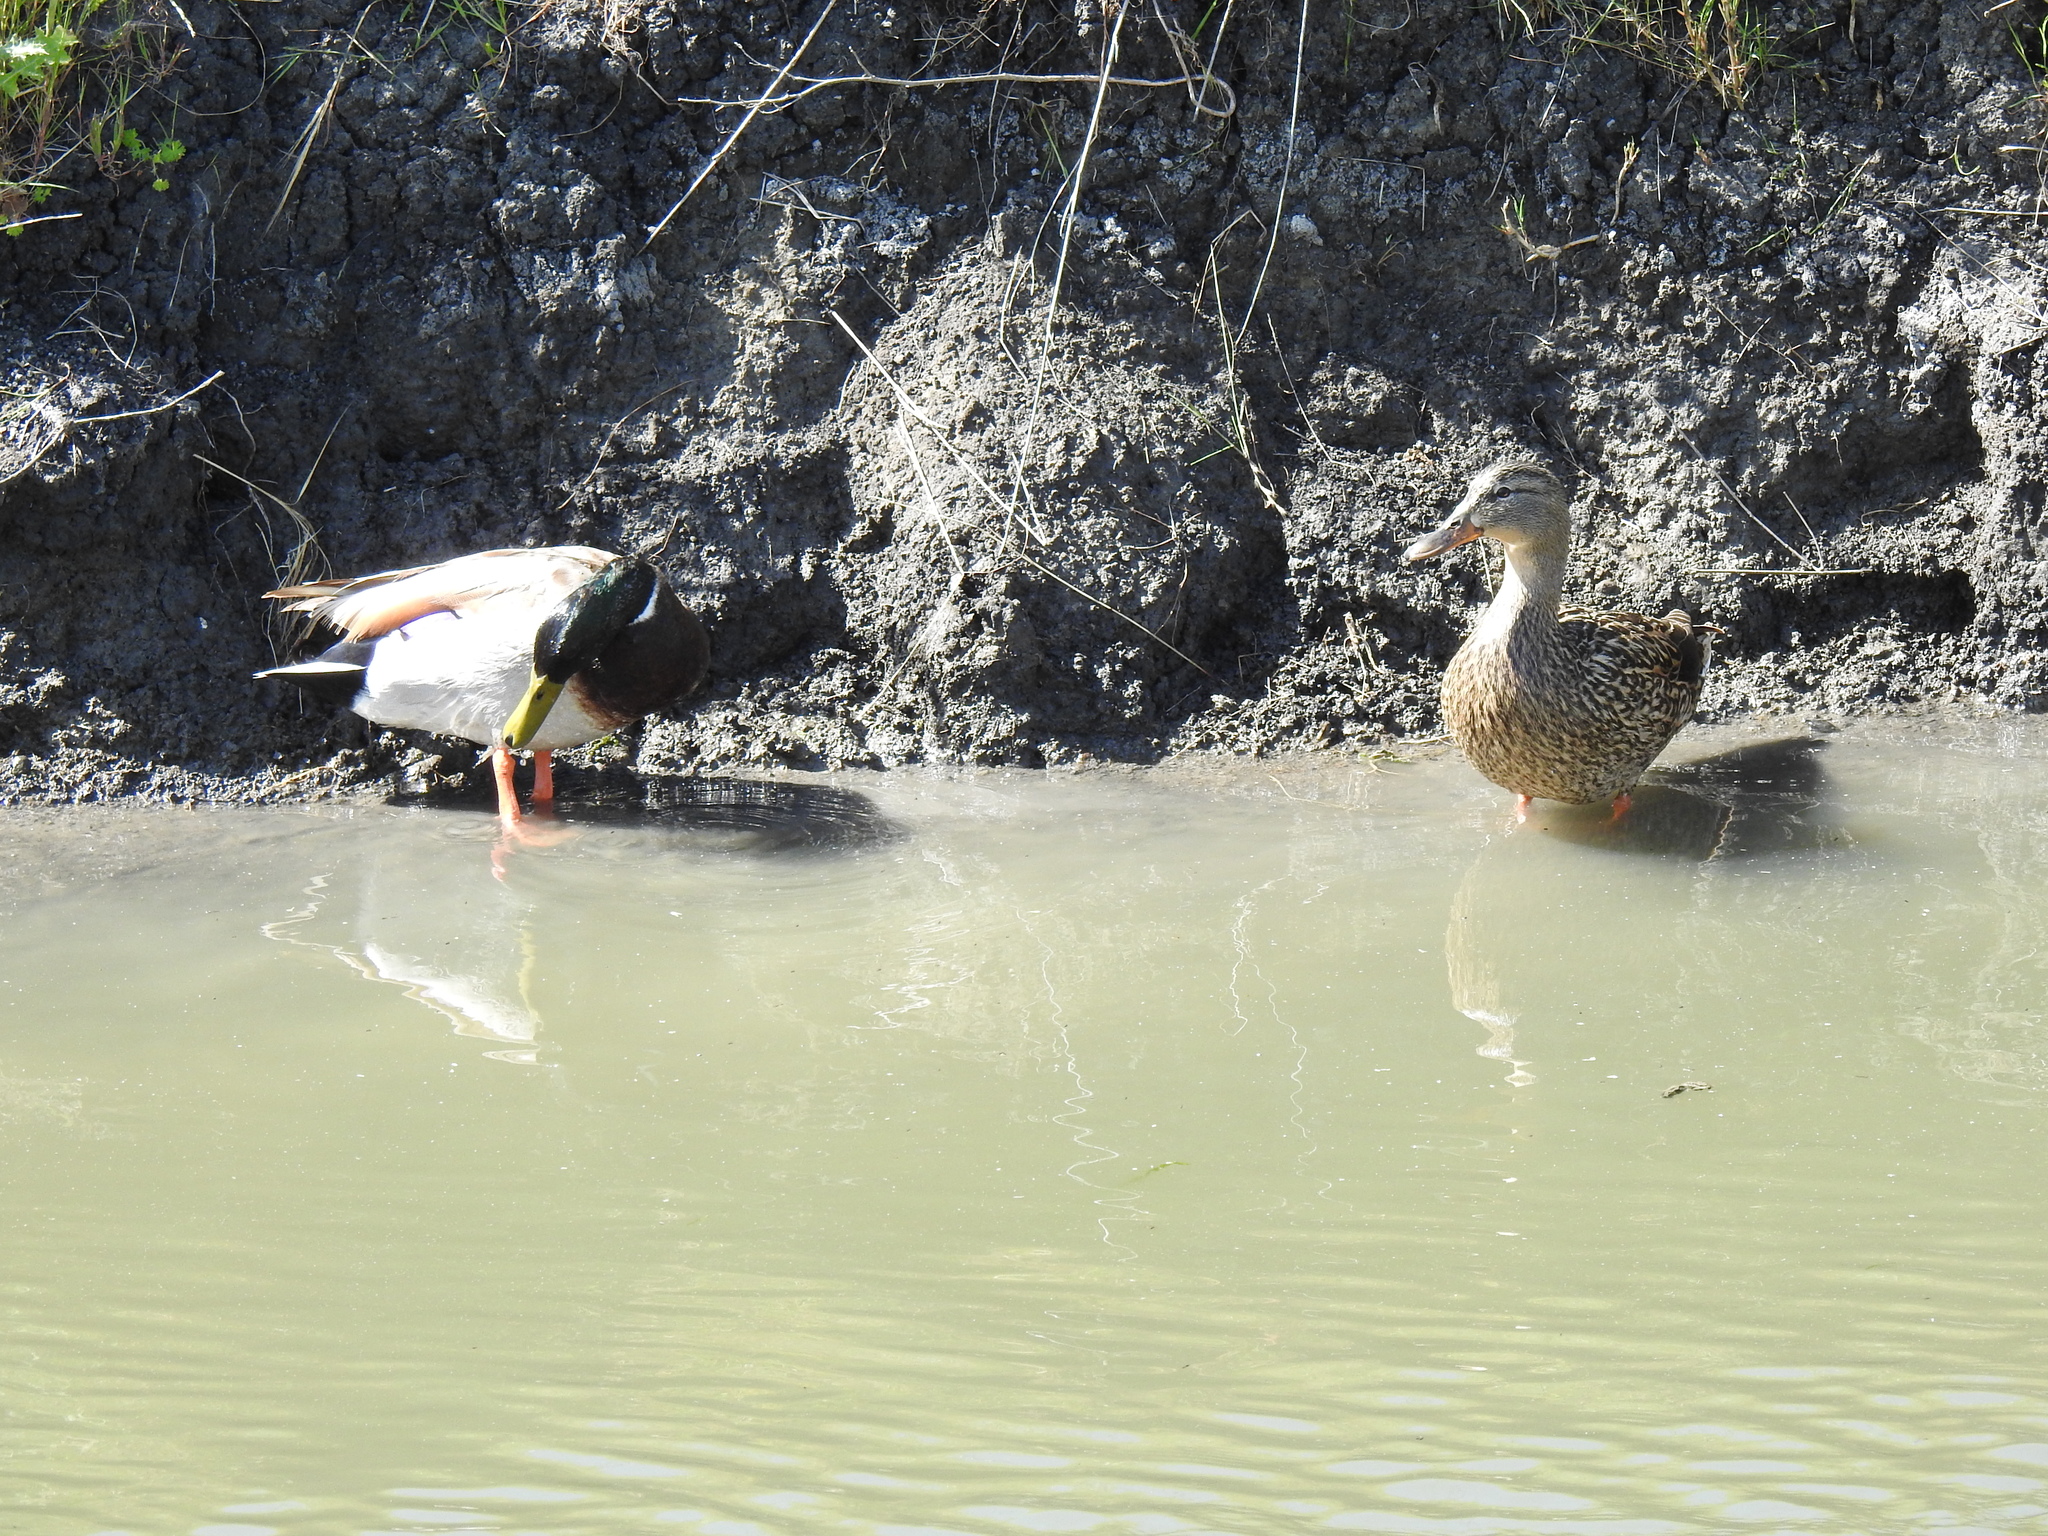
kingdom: Animalia
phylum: Chordata
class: Aves
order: Anseriformes
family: Anatidae
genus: Anas
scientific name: Anas platyrhynchos
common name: Mallard
